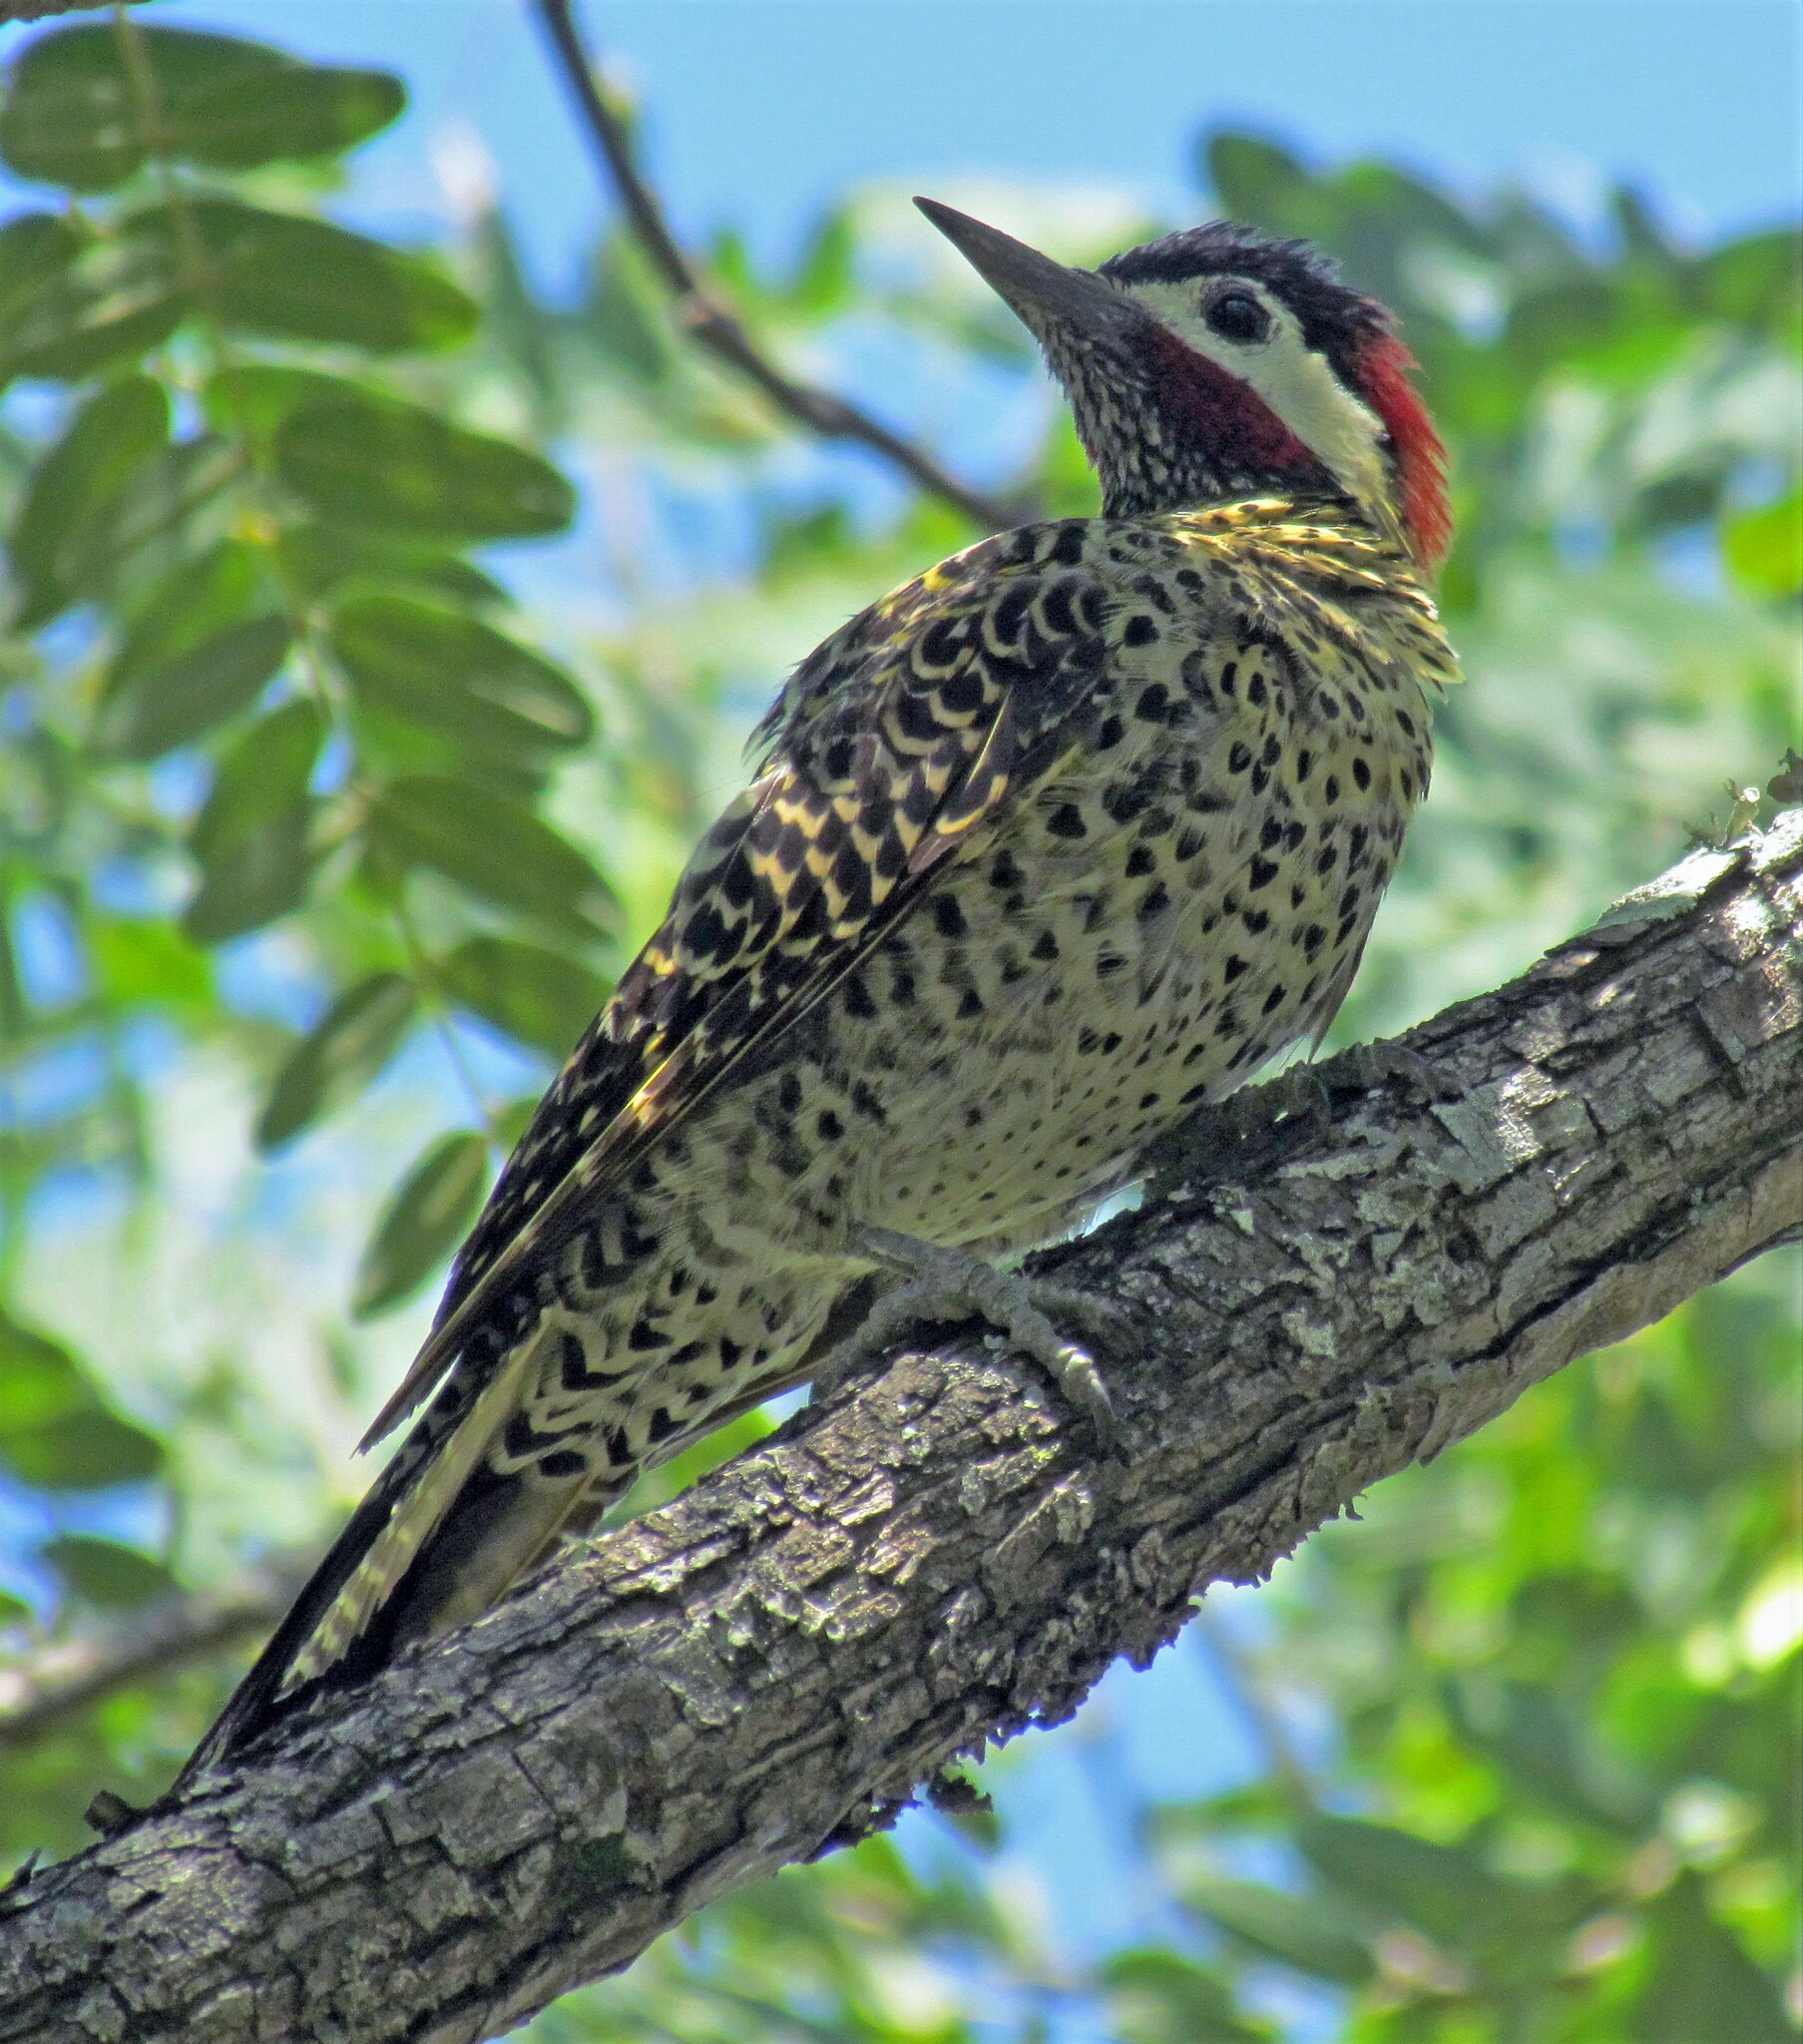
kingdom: Animalia
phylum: Chordata
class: Aves
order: Piciformes
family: Picidae
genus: Colaptes
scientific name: Colaptes melanochloros
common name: Green-barred woodpecker
